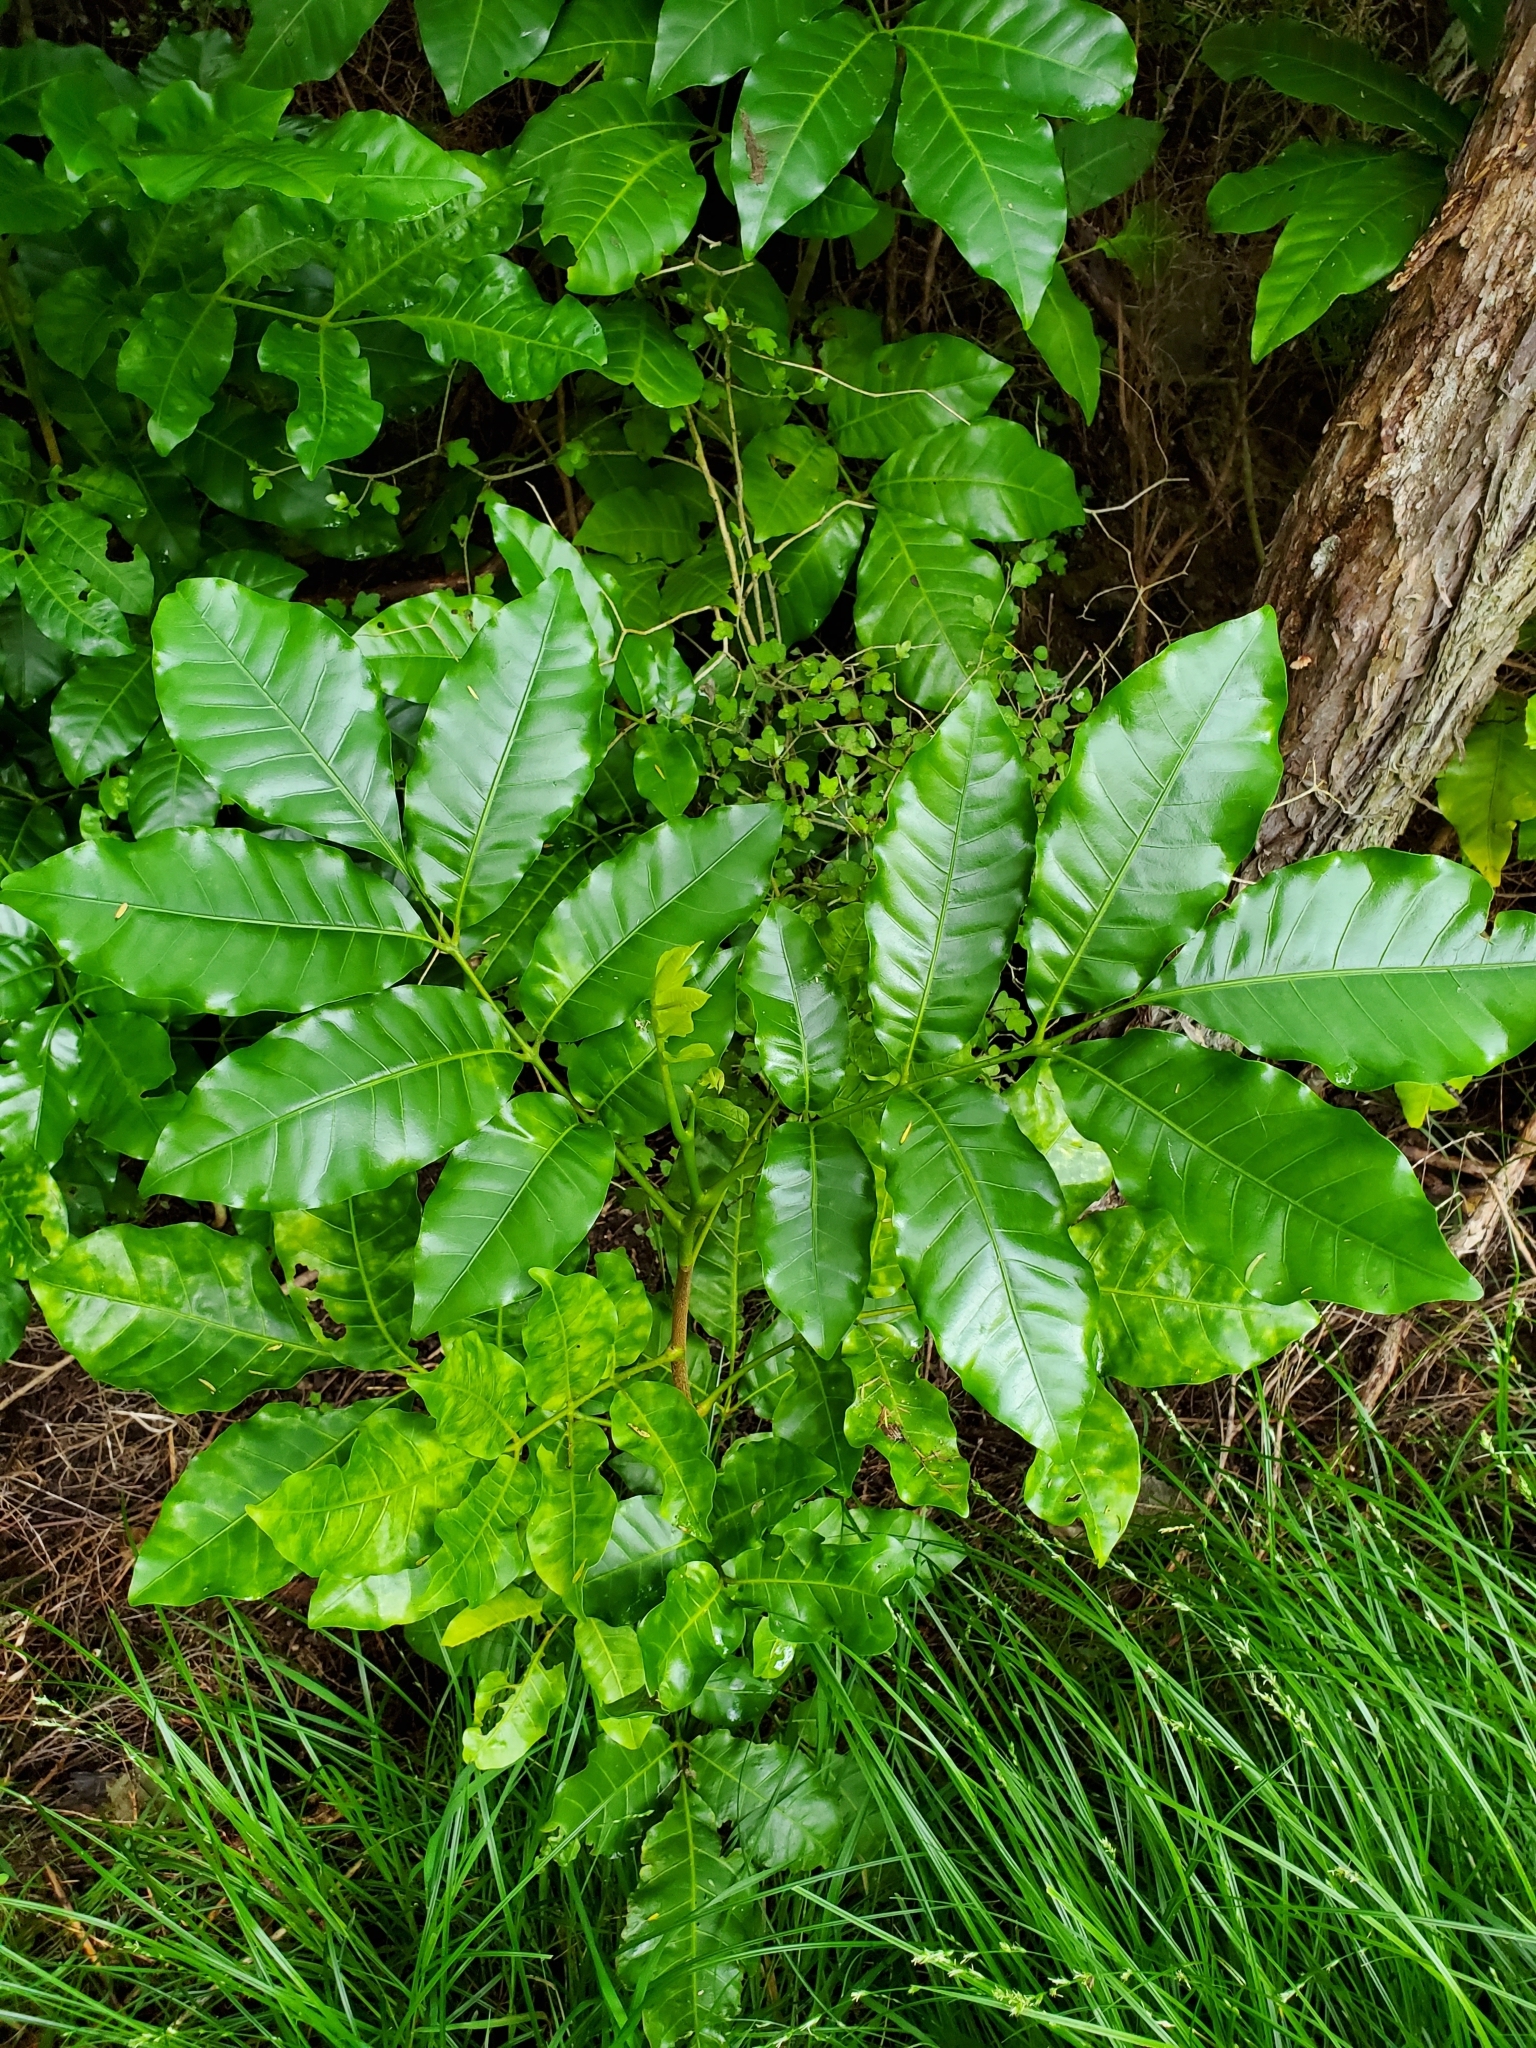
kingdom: Plantae
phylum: Tracheophyta
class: Magnoliopsida
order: Sapindales
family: Meliaceae
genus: Didymocheton
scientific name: Didymocheton spectabilis
